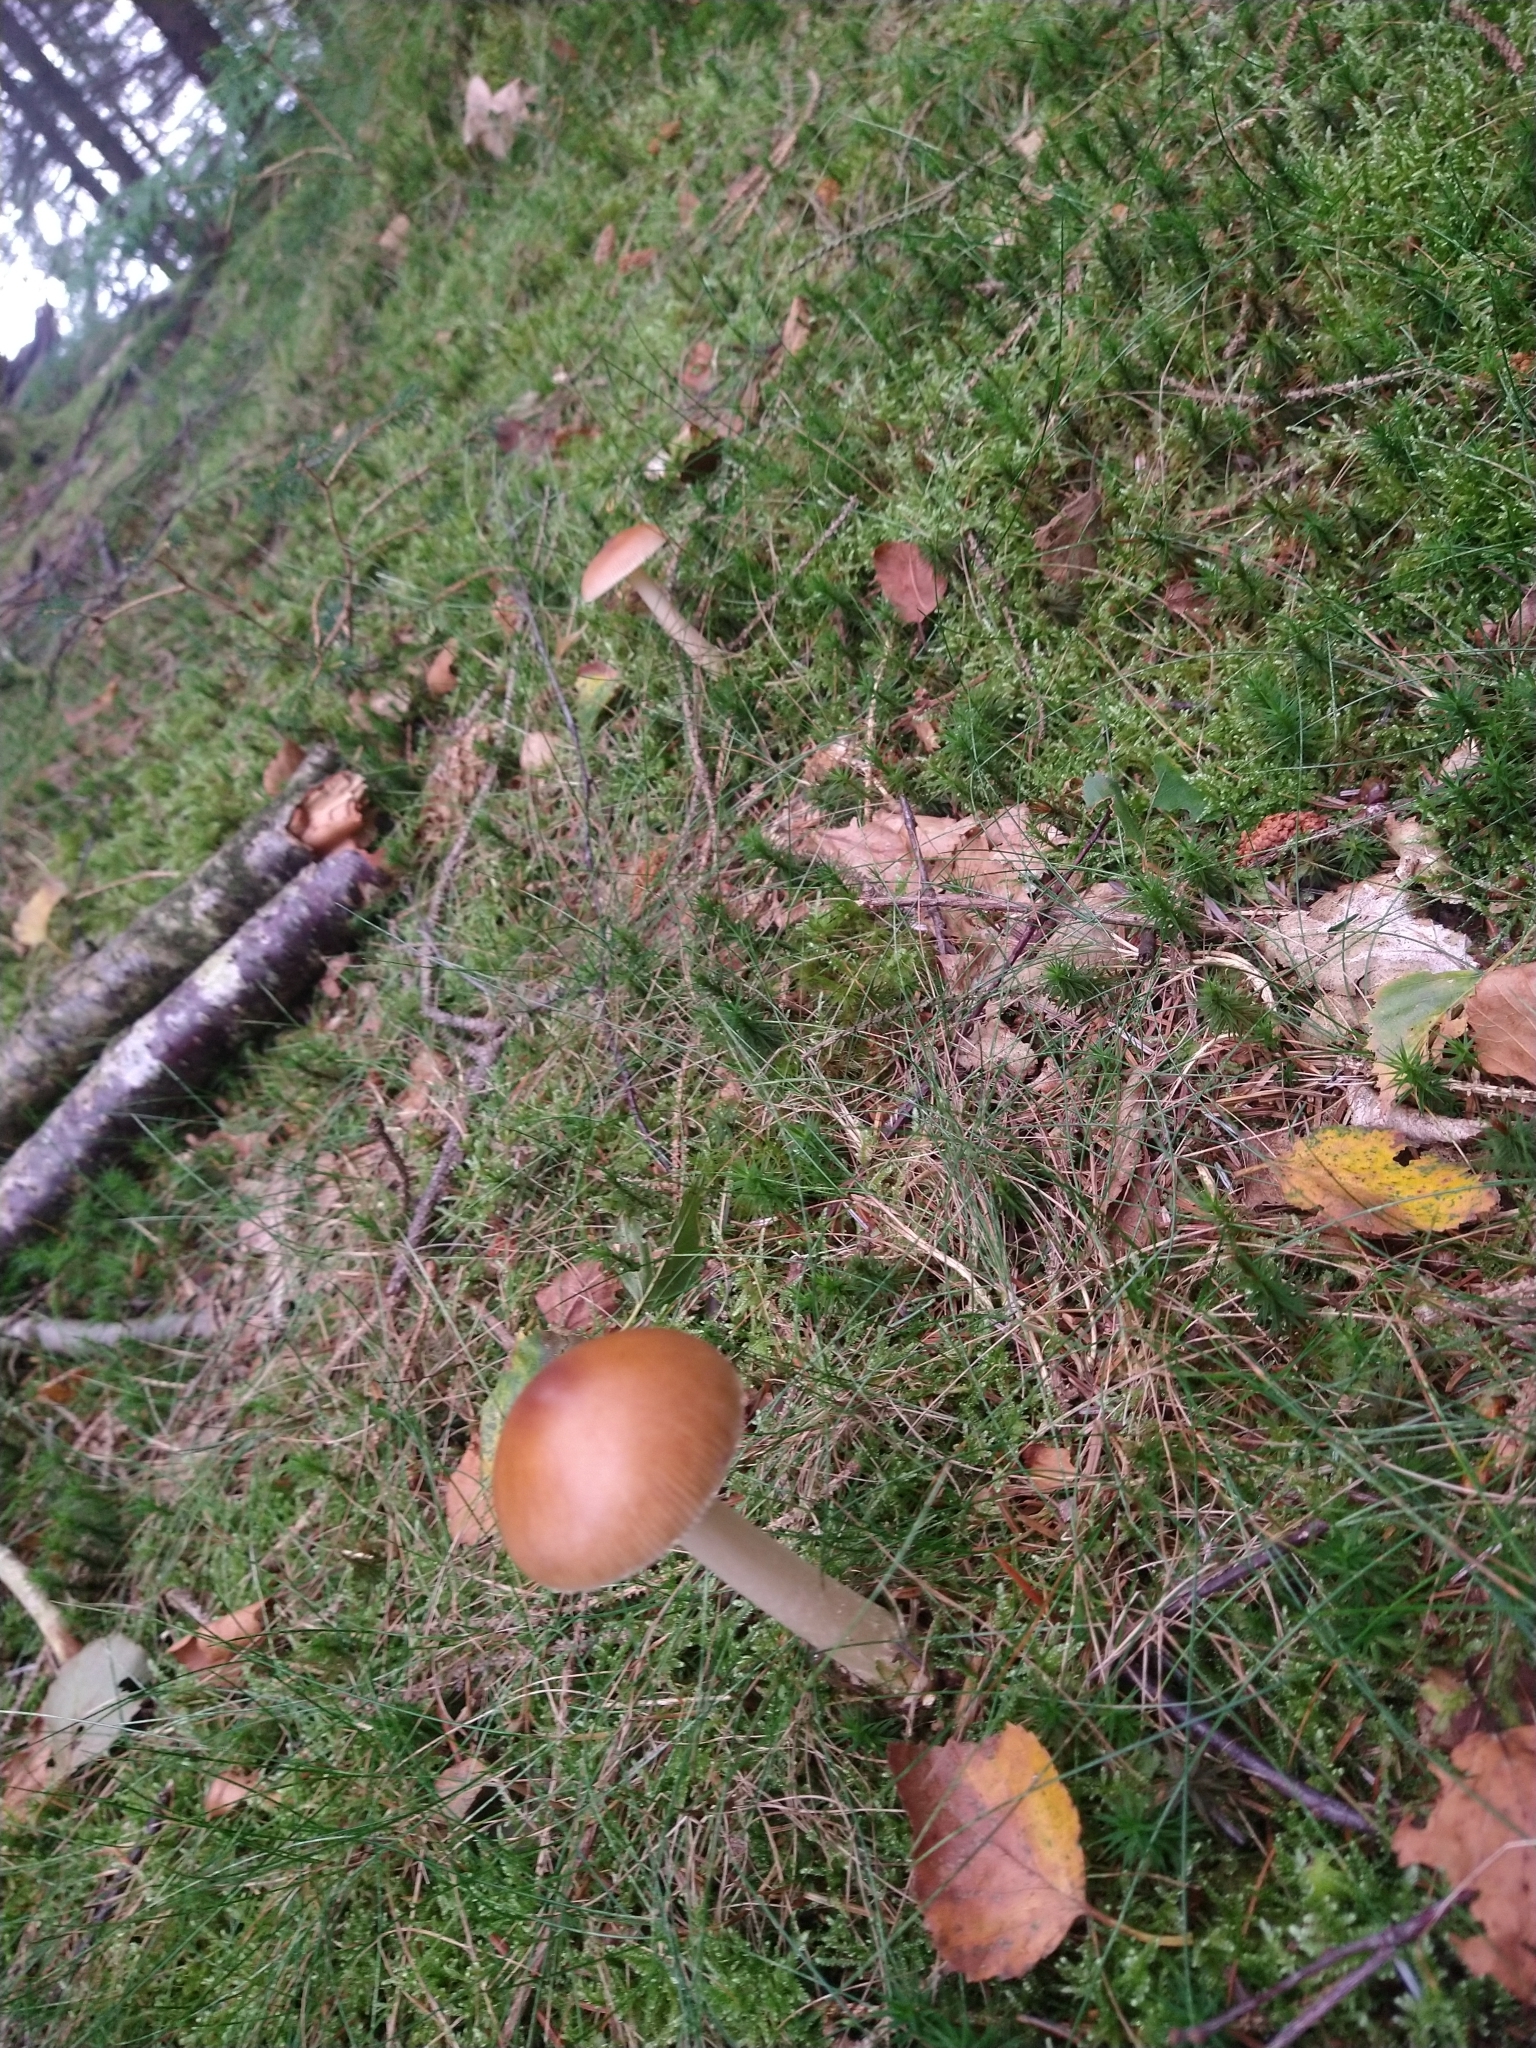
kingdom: Fungi
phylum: Basidiomycota
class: Agaricomycetes
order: Agaricales
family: Amanitaceae
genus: Amanita
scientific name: Amanita fulva
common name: Tawny grisette
